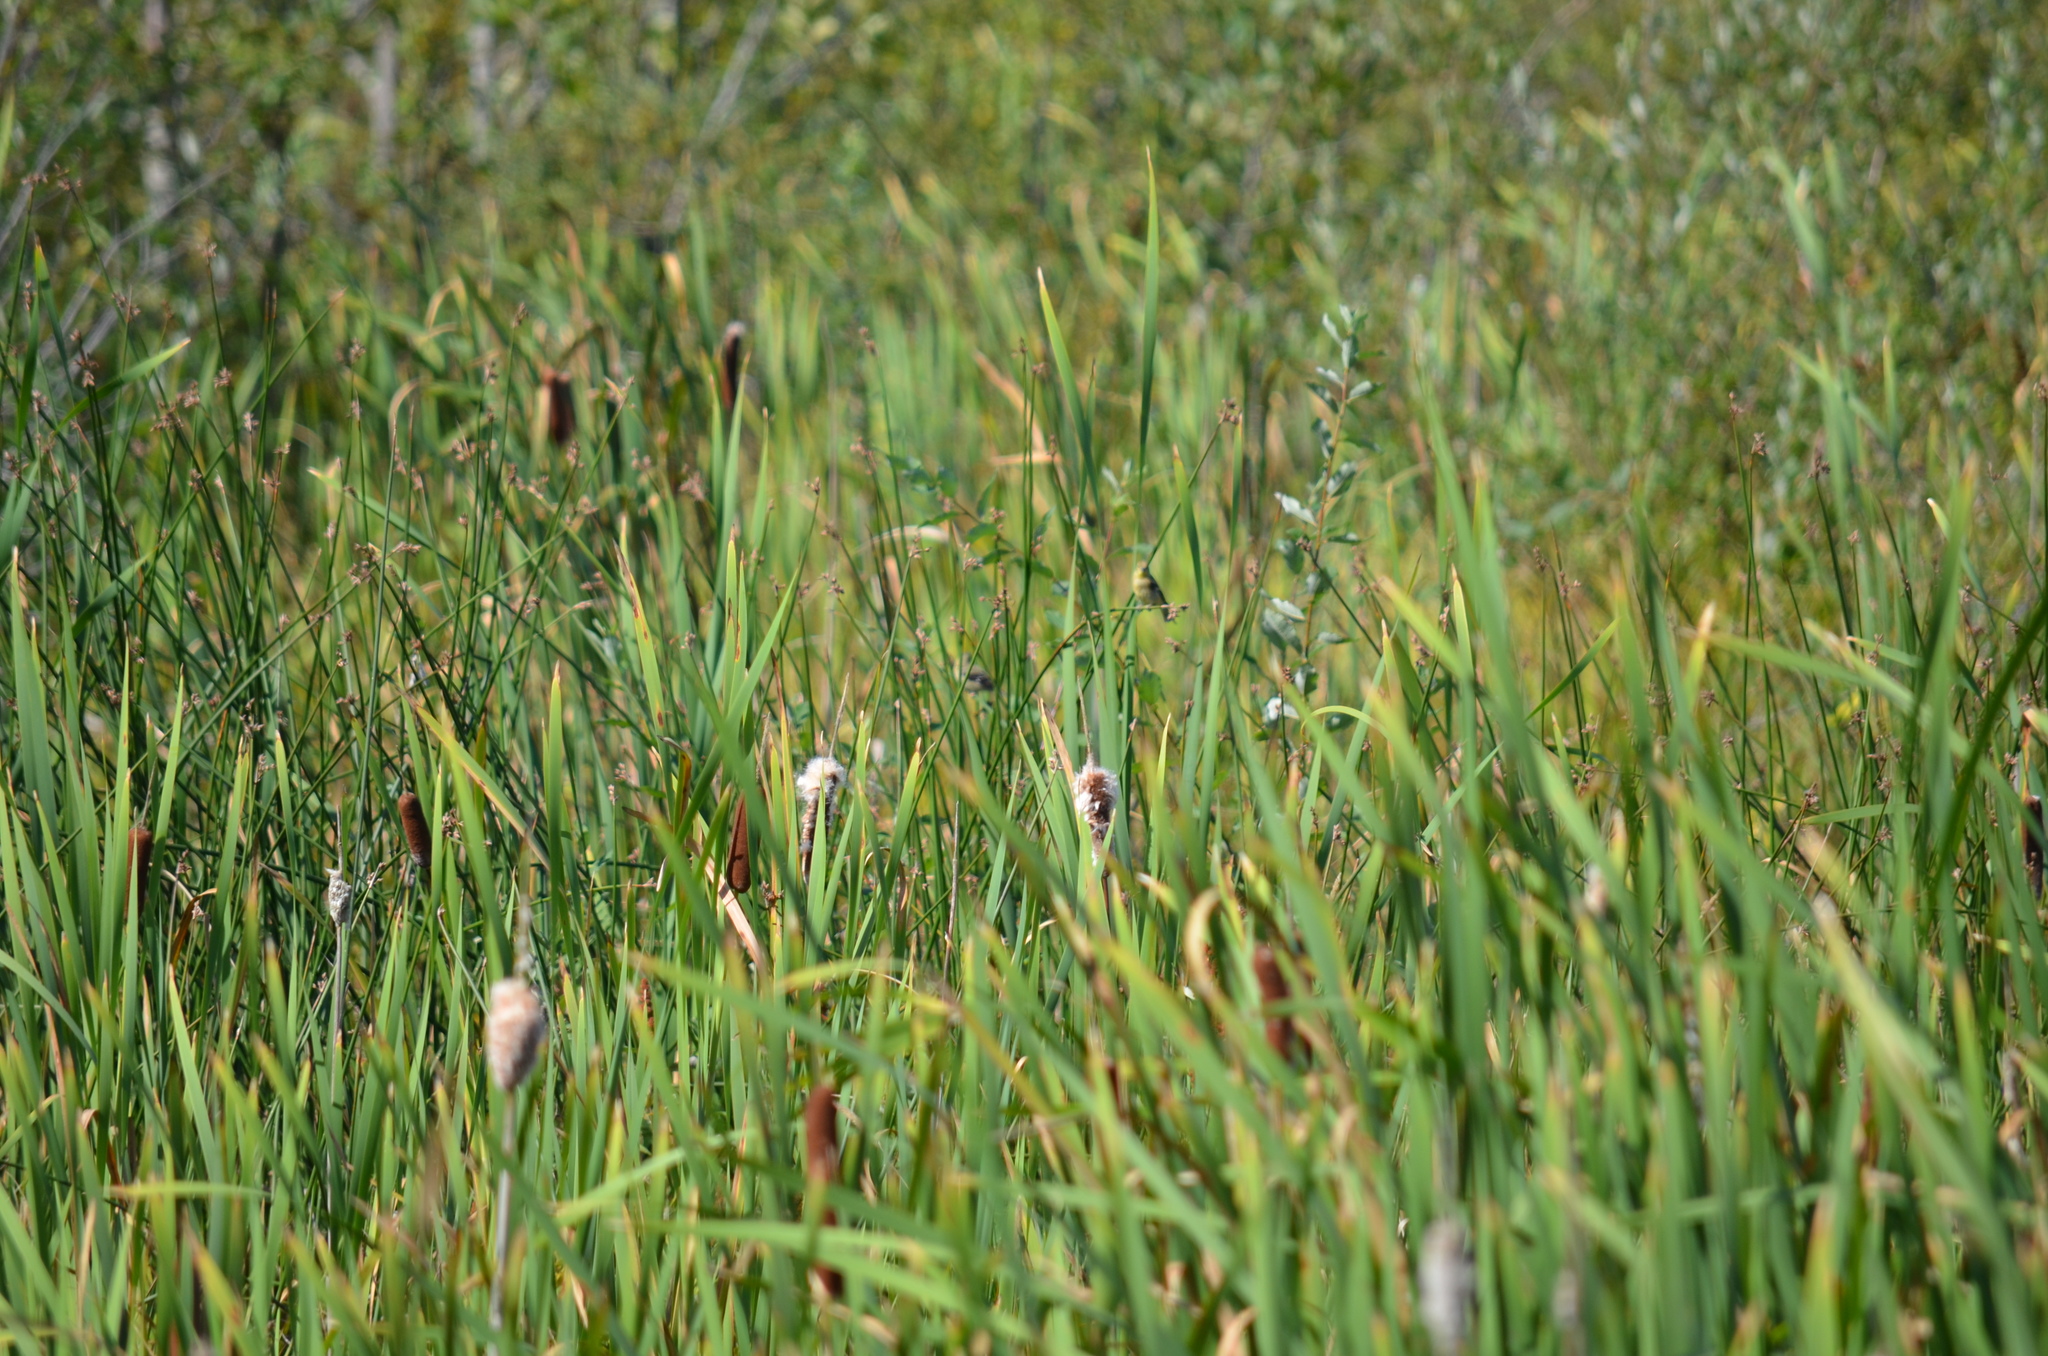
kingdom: Animalia
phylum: Chordata
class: Aves
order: Passeriformes
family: Fringillidae
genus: Spinus
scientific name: Spinus tristis
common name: American goldfinch
